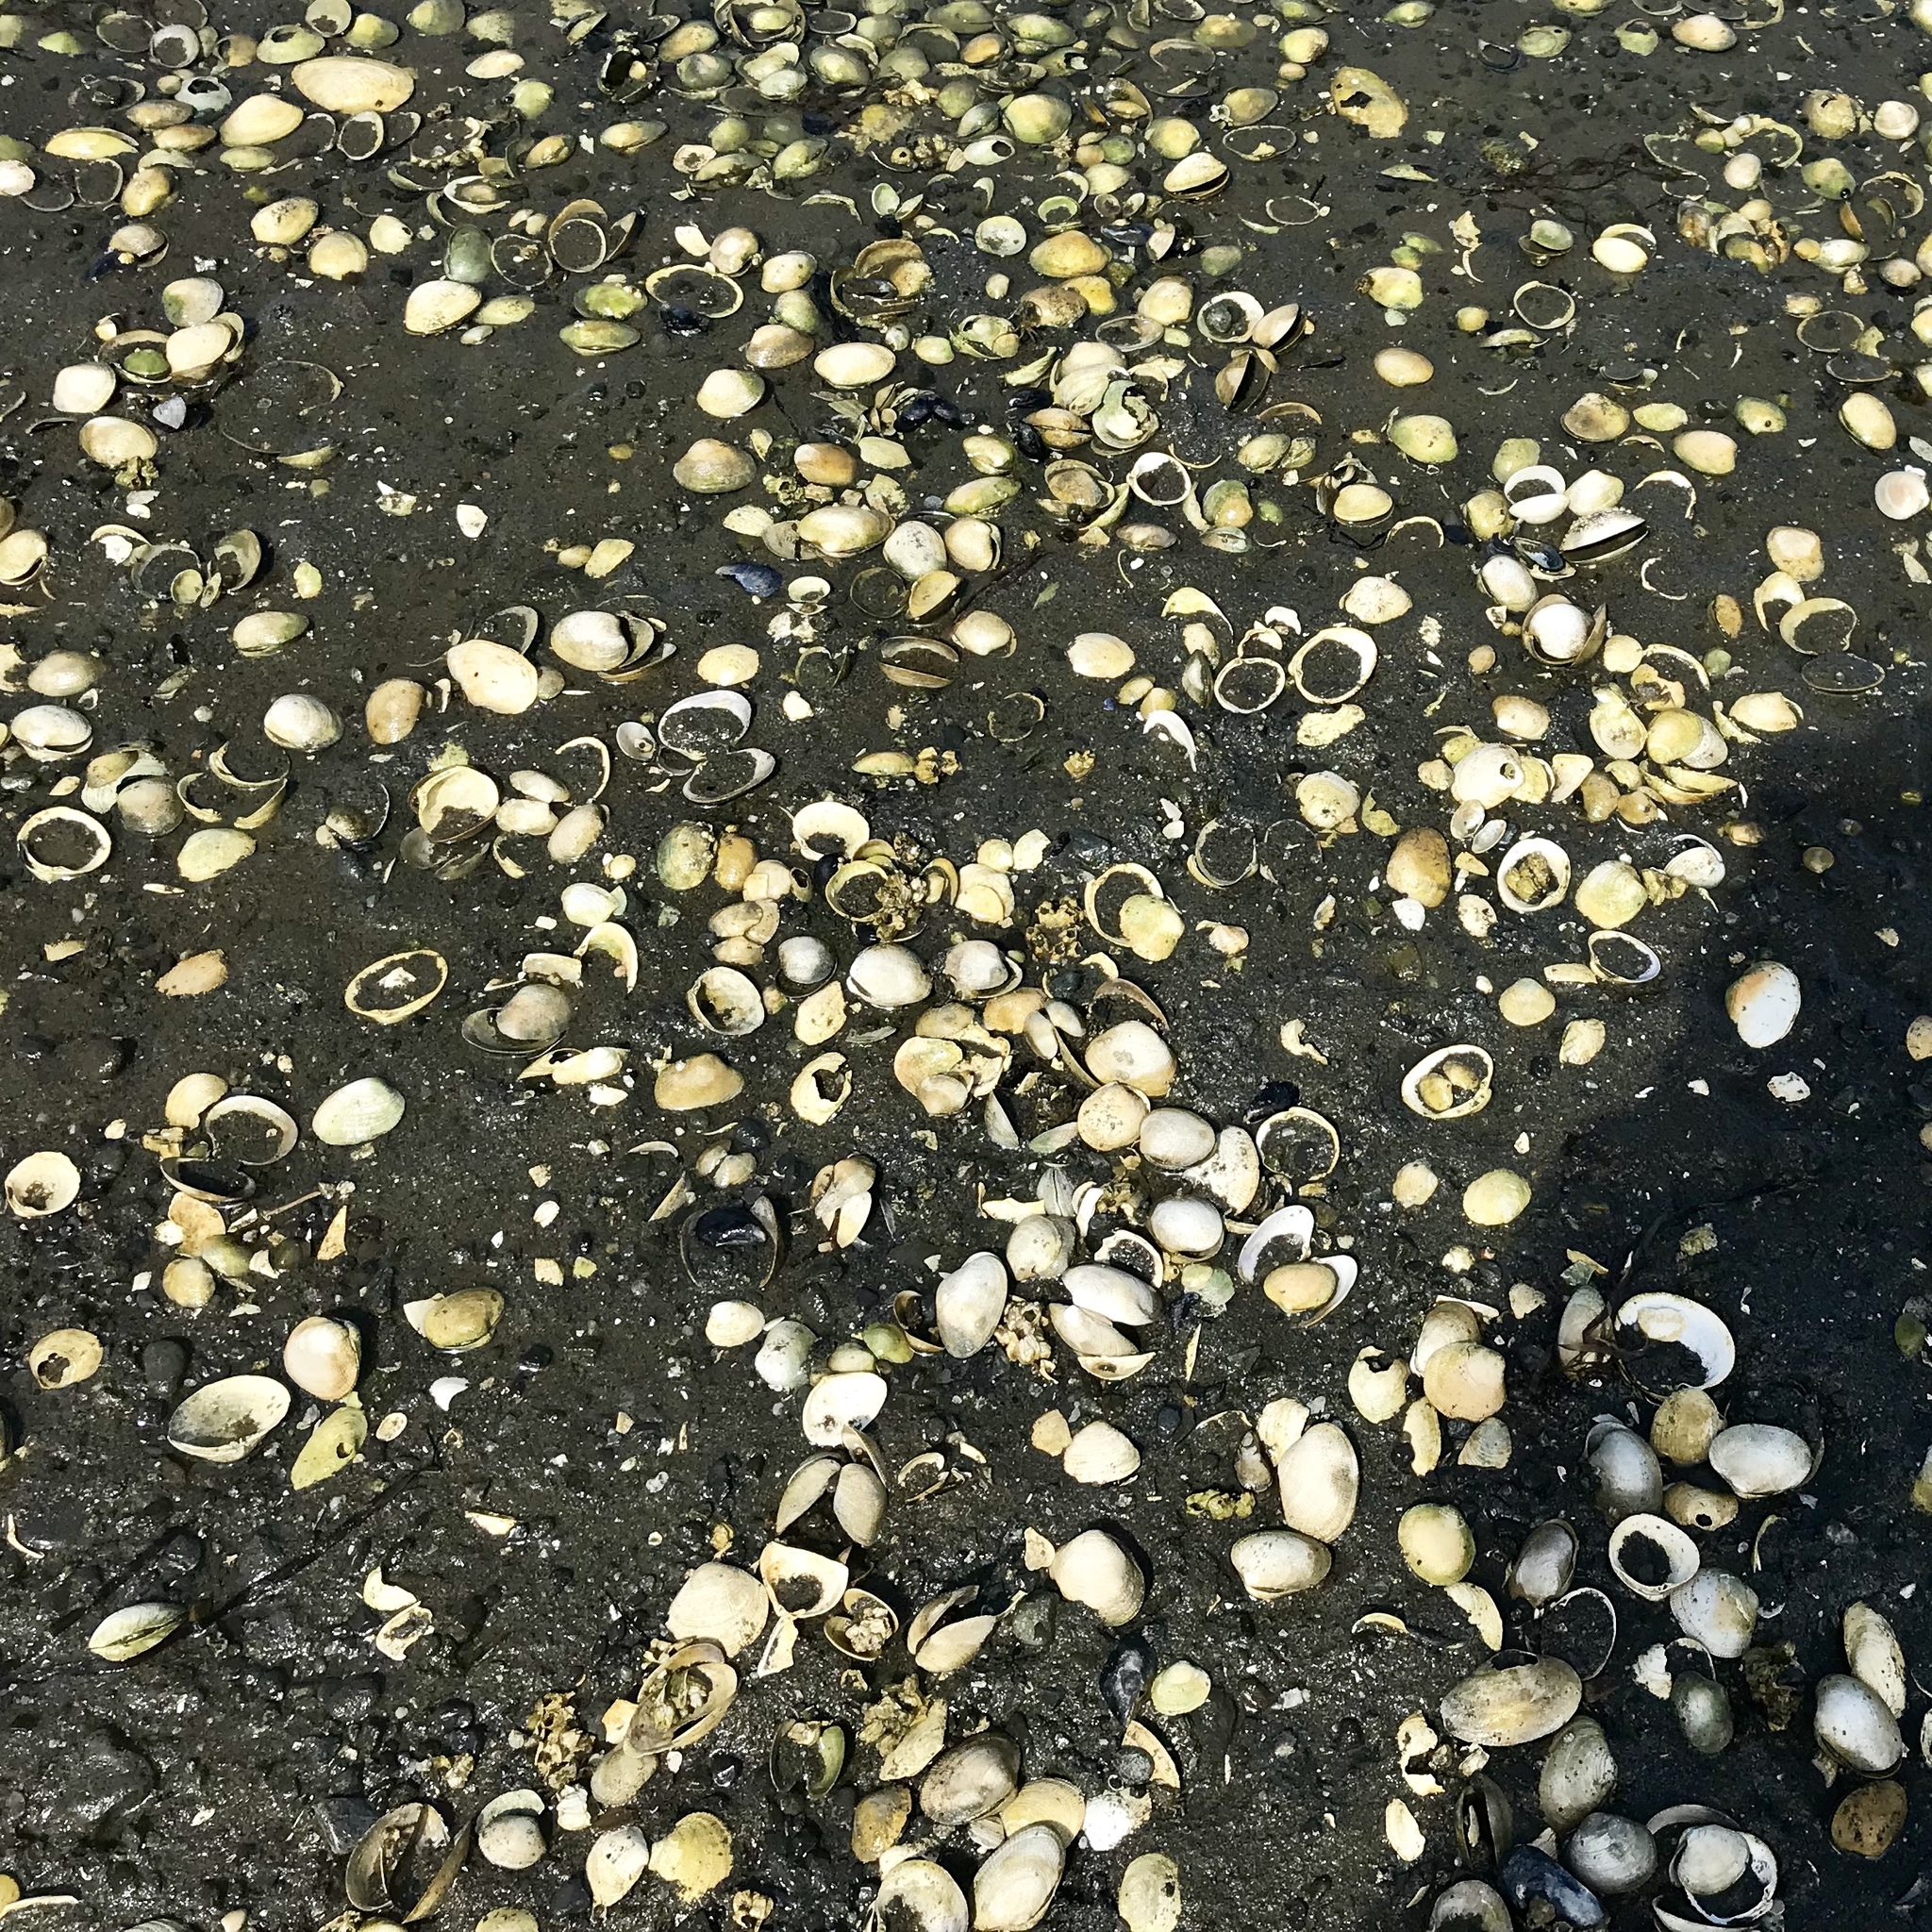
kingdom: Animalia
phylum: Mollusca
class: Bivalvia
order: Venerida
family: Veneridae
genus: Leukoma
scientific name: Leukoma staminea
